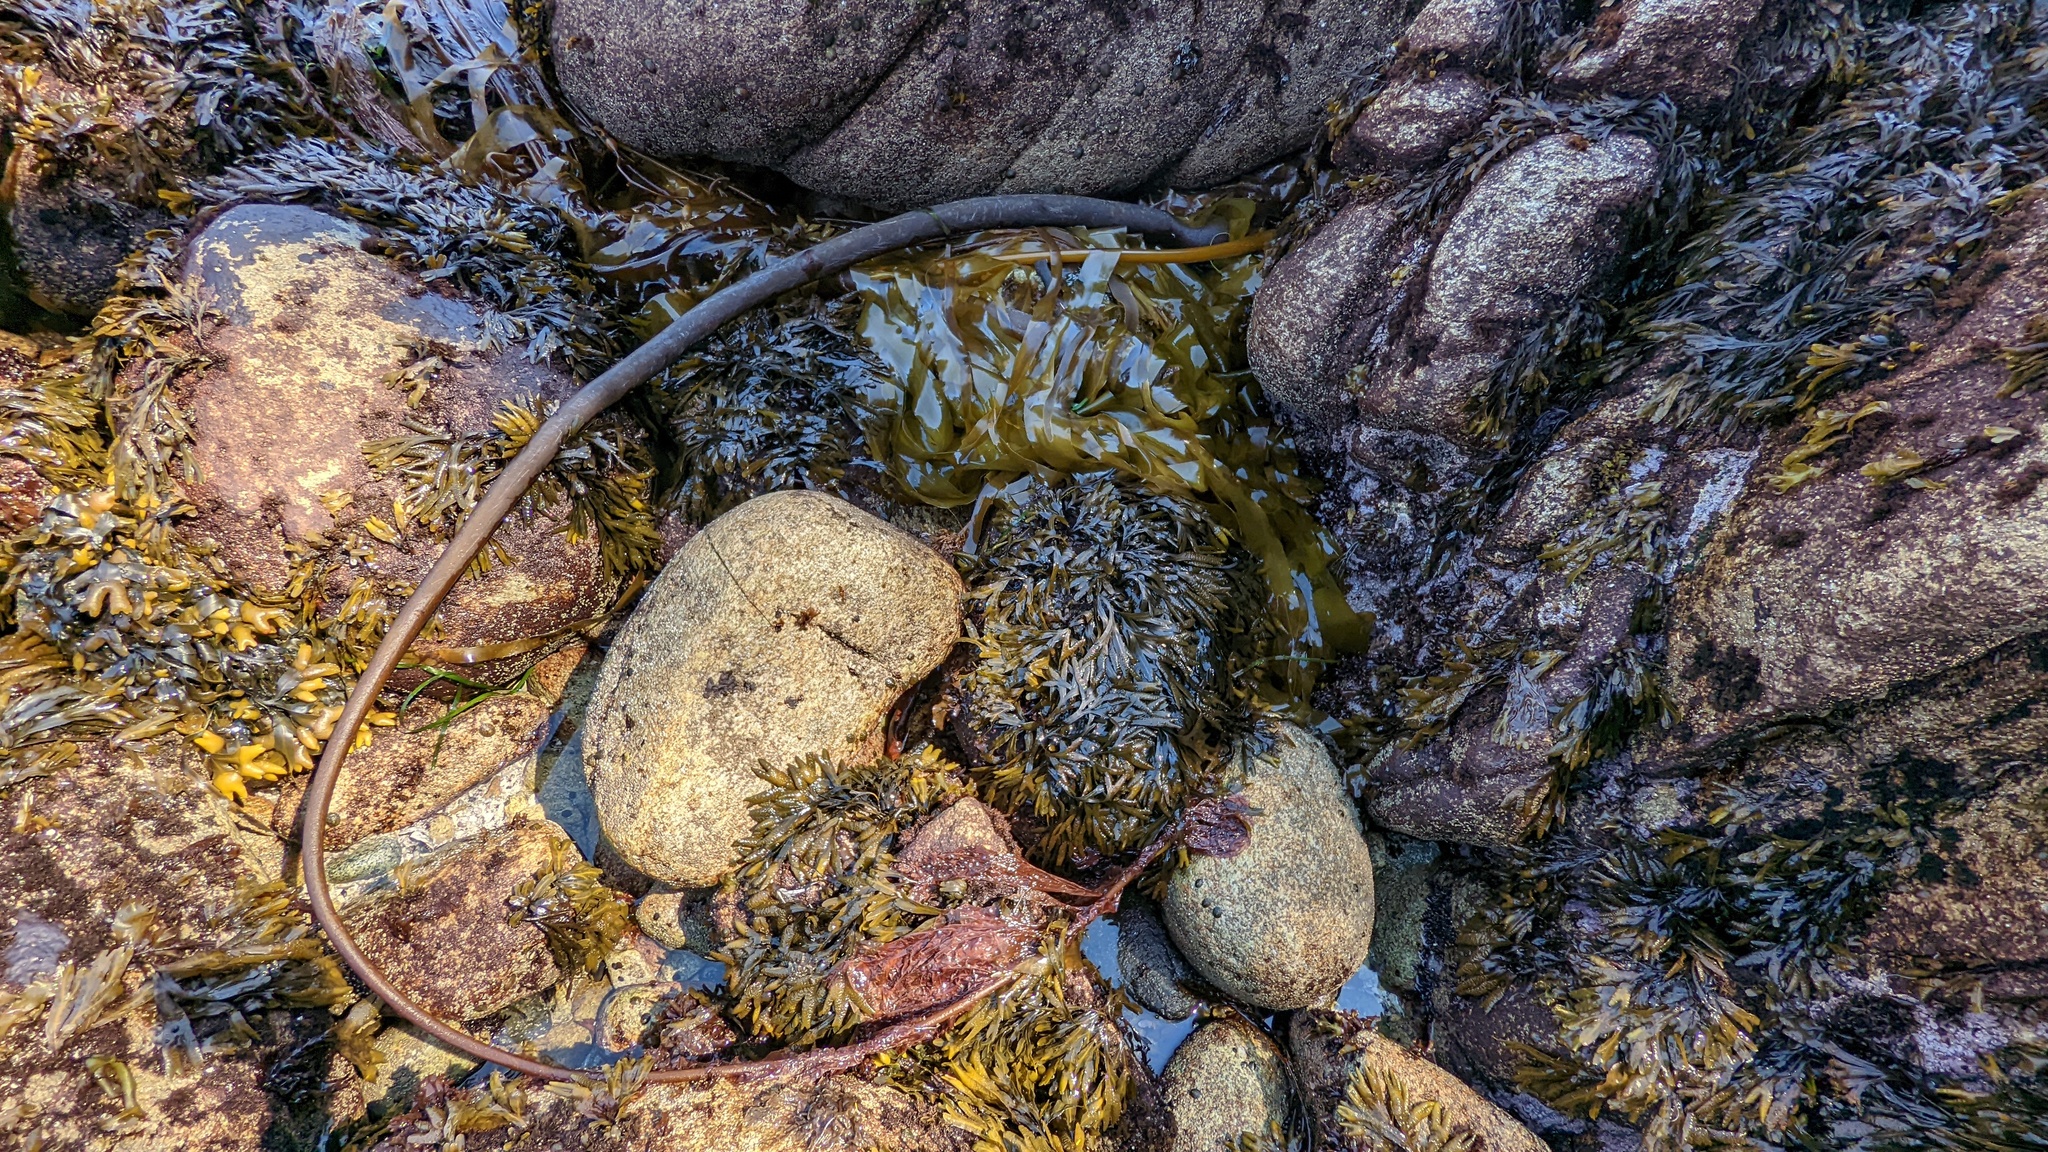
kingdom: Chromista
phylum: Ochrophyta
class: Phaeophyceae
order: Laminariales
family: Laminariaceae
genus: Nereocystis
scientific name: Nereocystis luetkeana
